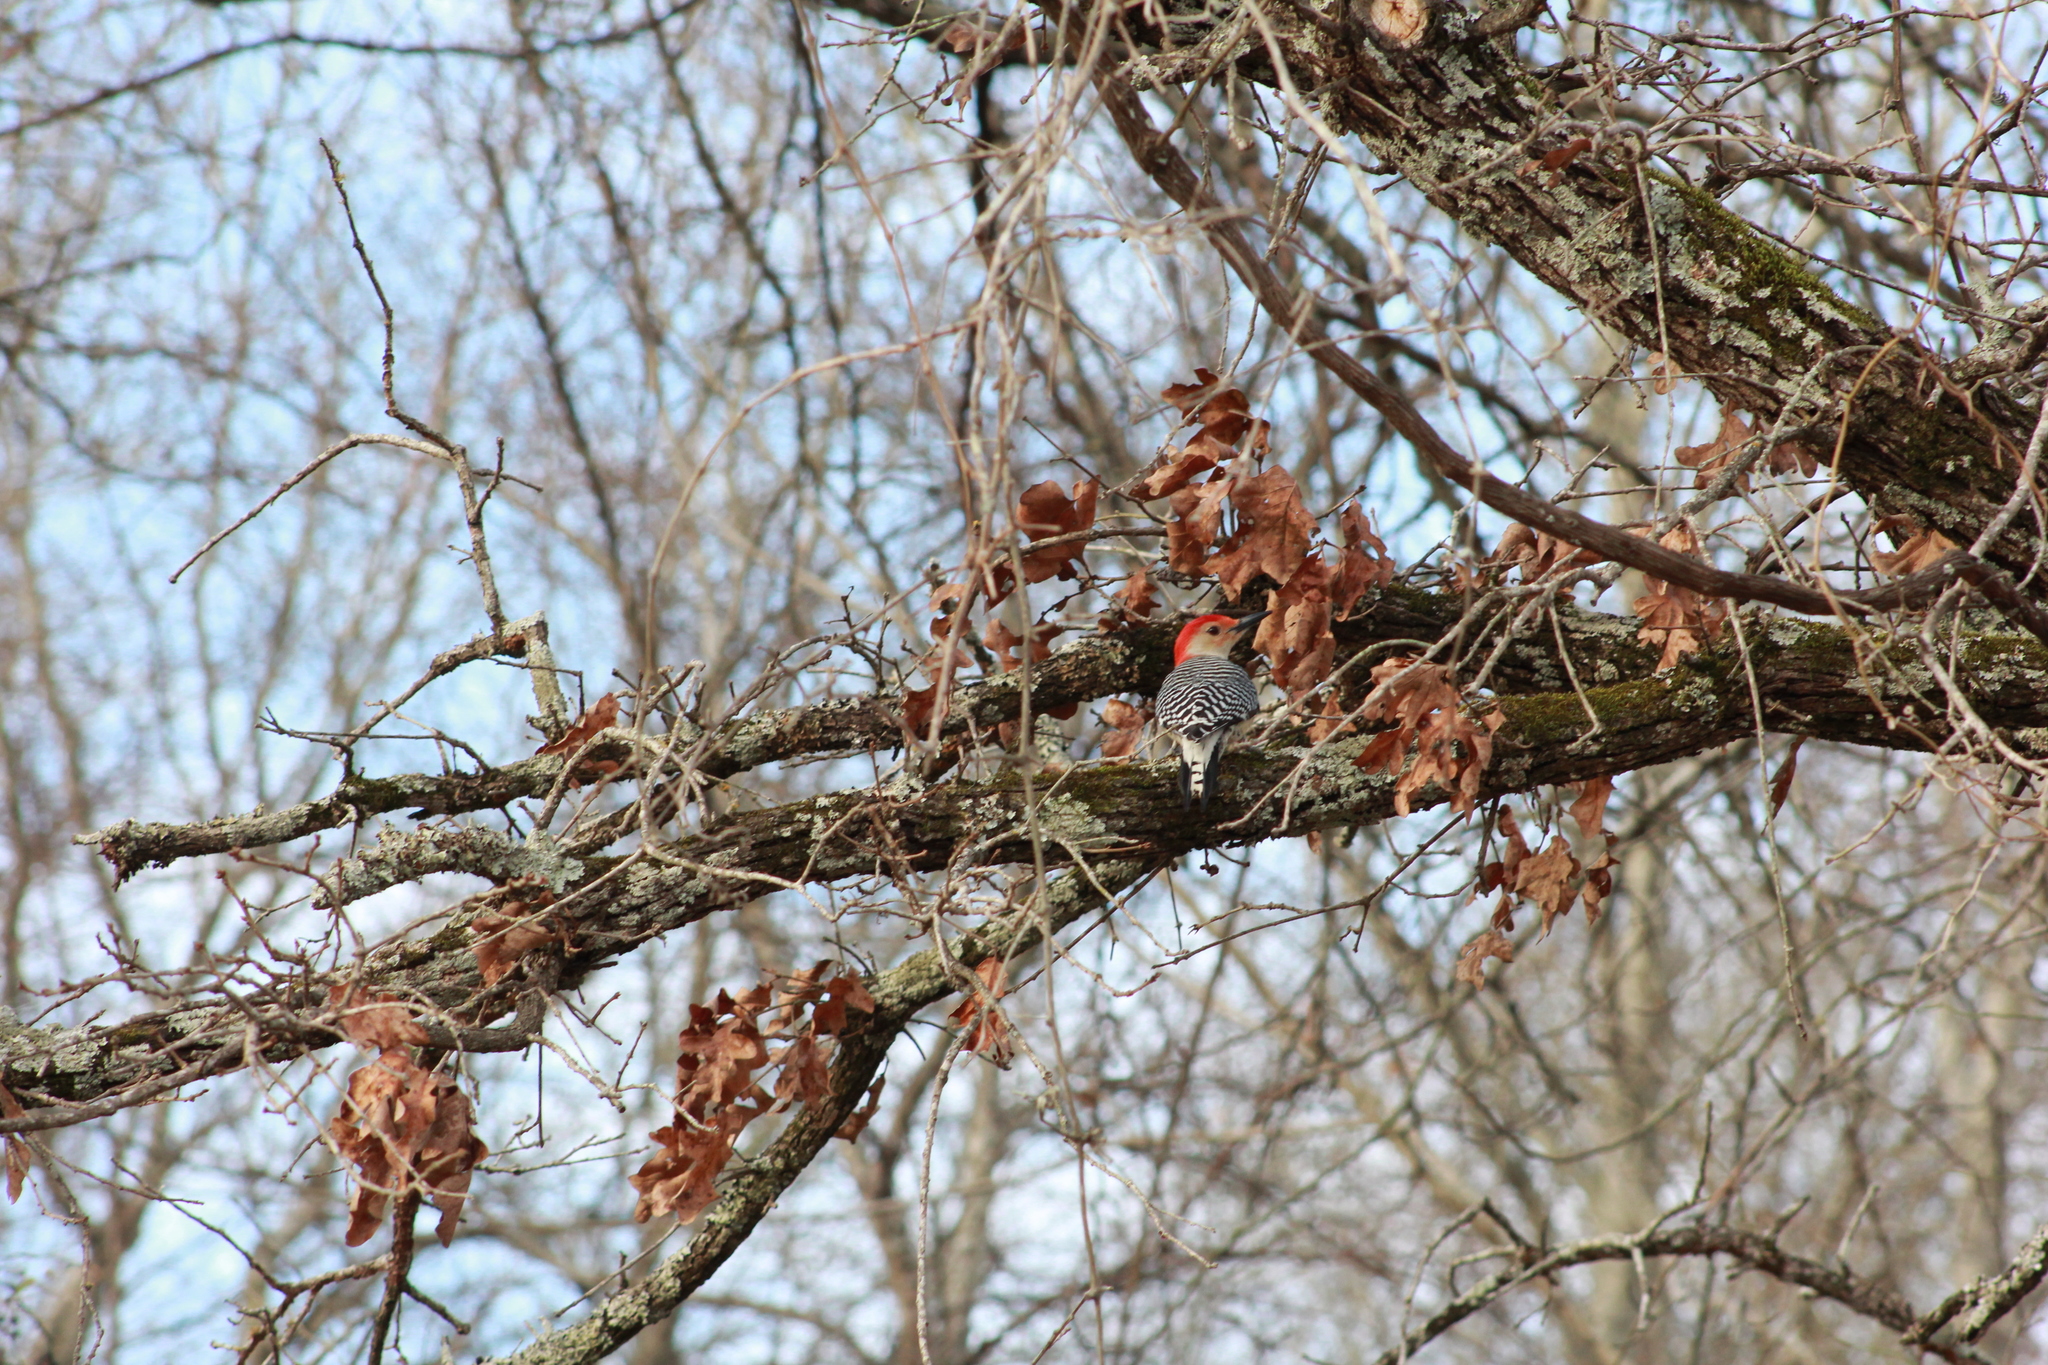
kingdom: Animalia
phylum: Chordata
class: Aves
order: Piciformes
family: Picidae
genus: Melanerpes
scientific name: Melanerpes carolinus
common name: Red-bellied woodpecker
